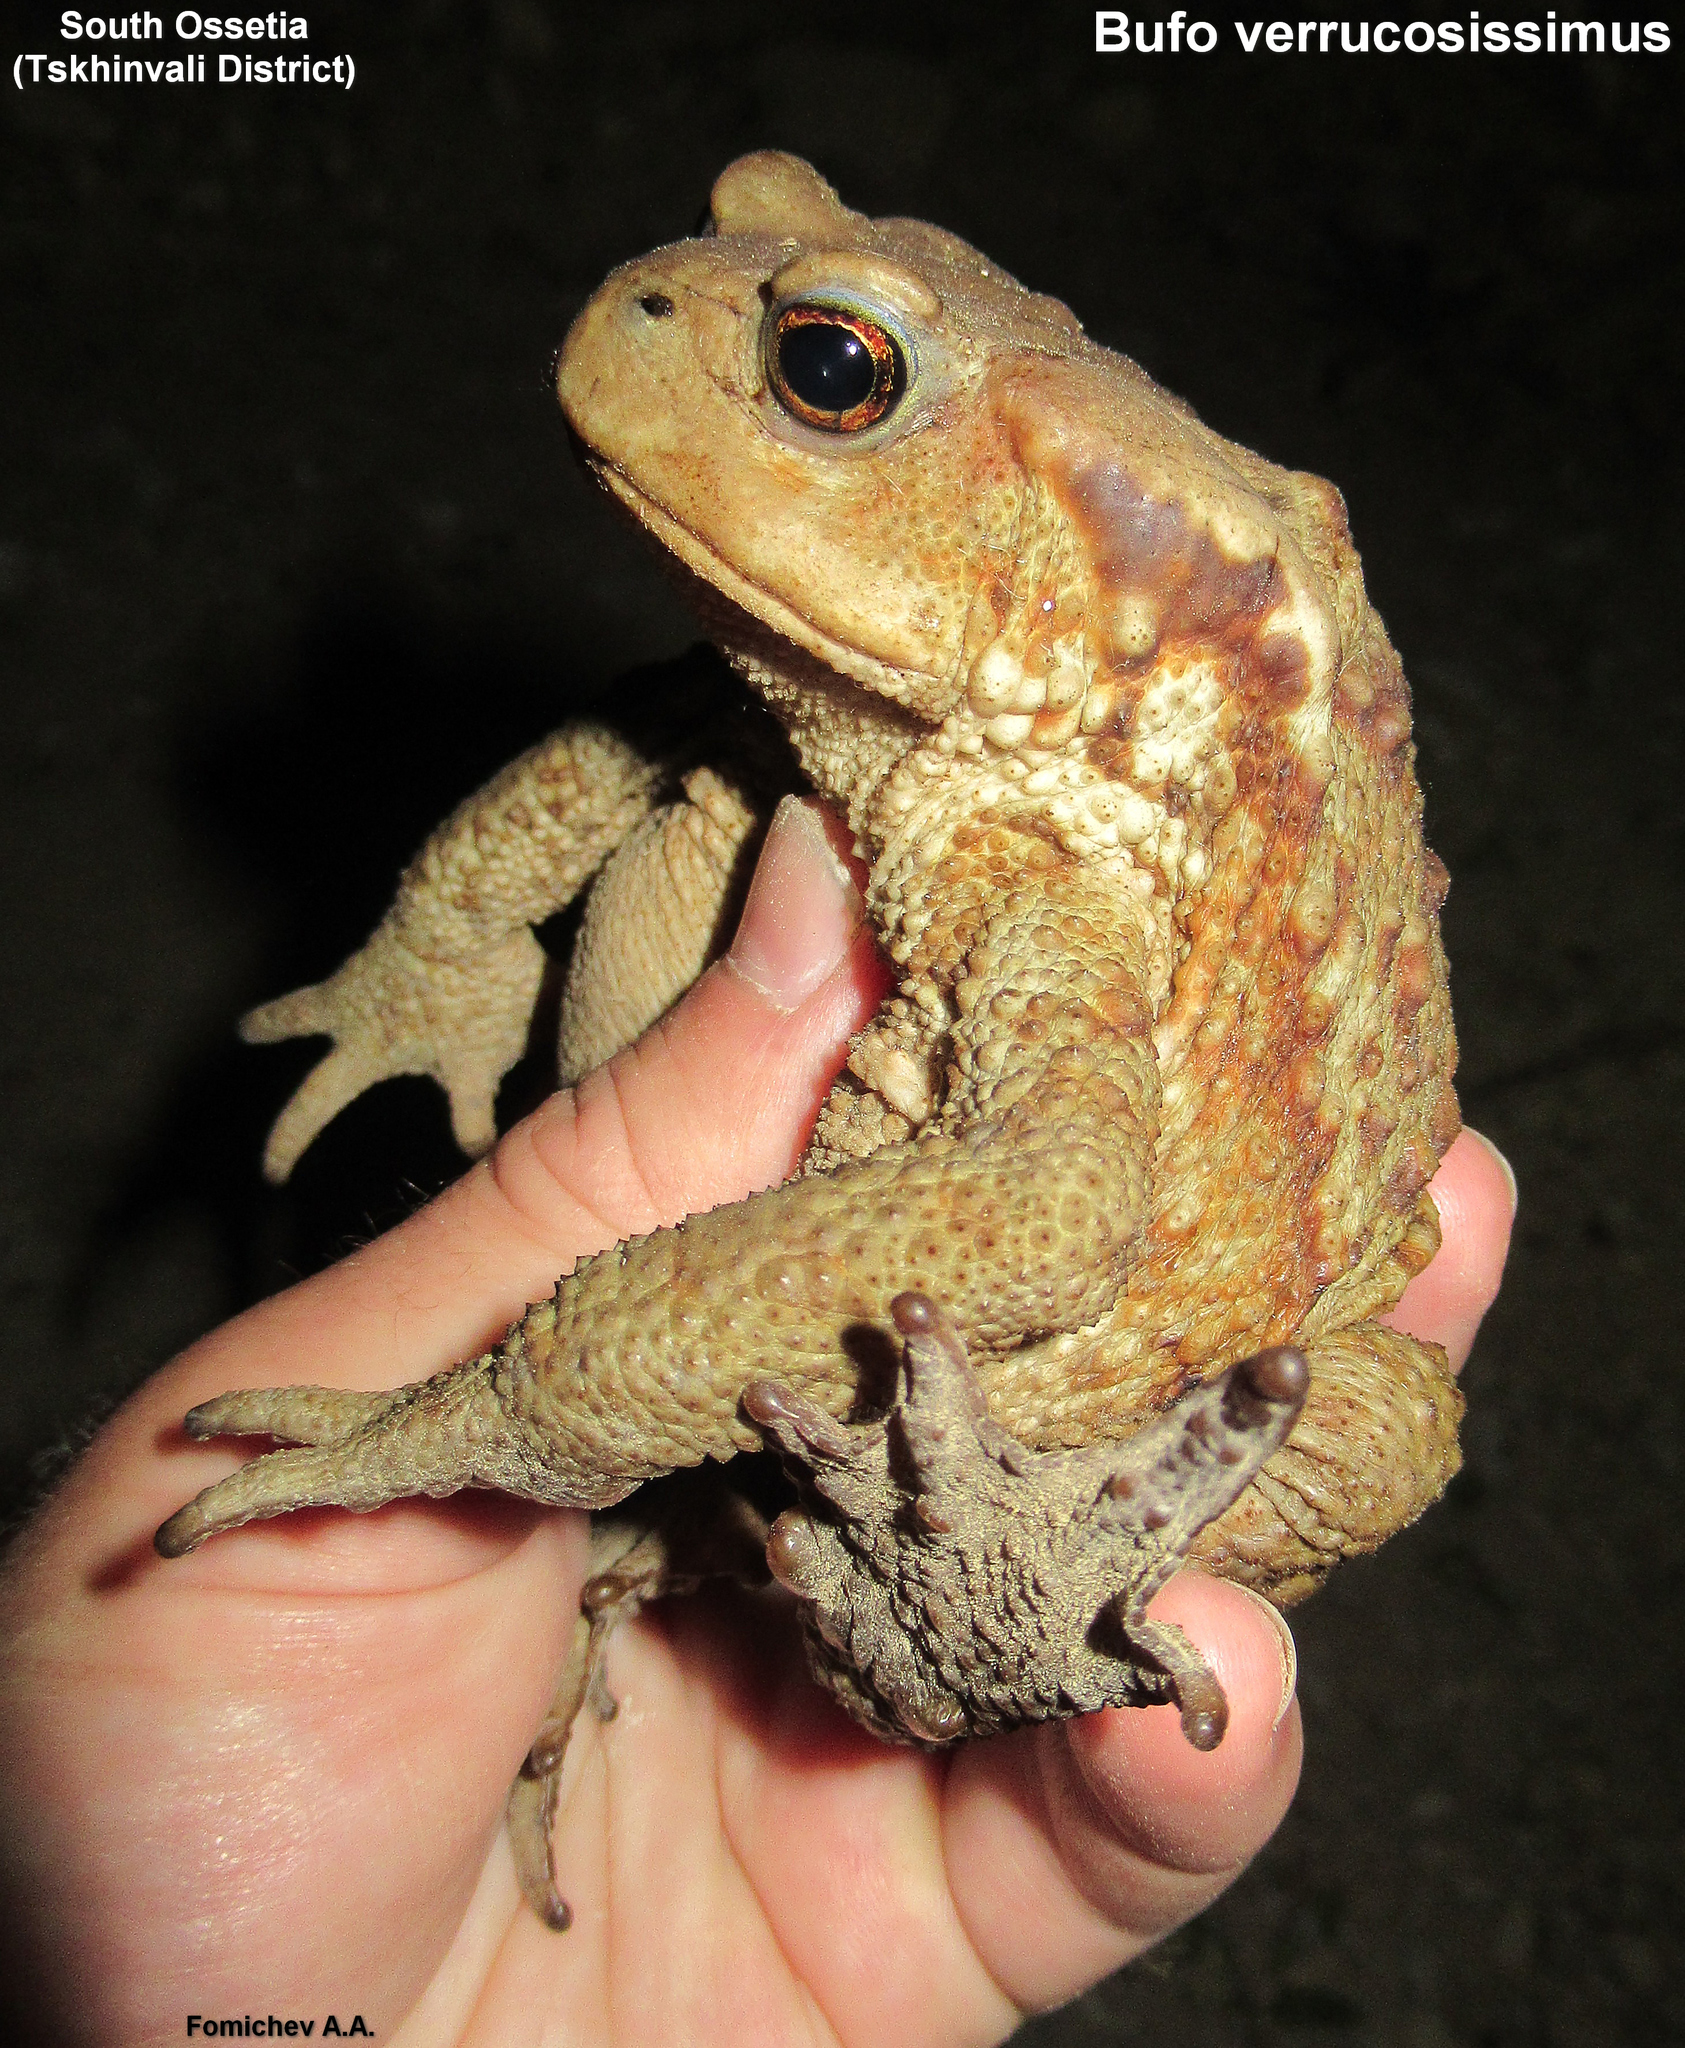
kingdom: Animalia
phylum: Chordata
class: Amphibia
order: Anura
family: Bufonidae
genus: Bufo
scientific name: Bufo verrucosissimus
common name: Caucasian toad
